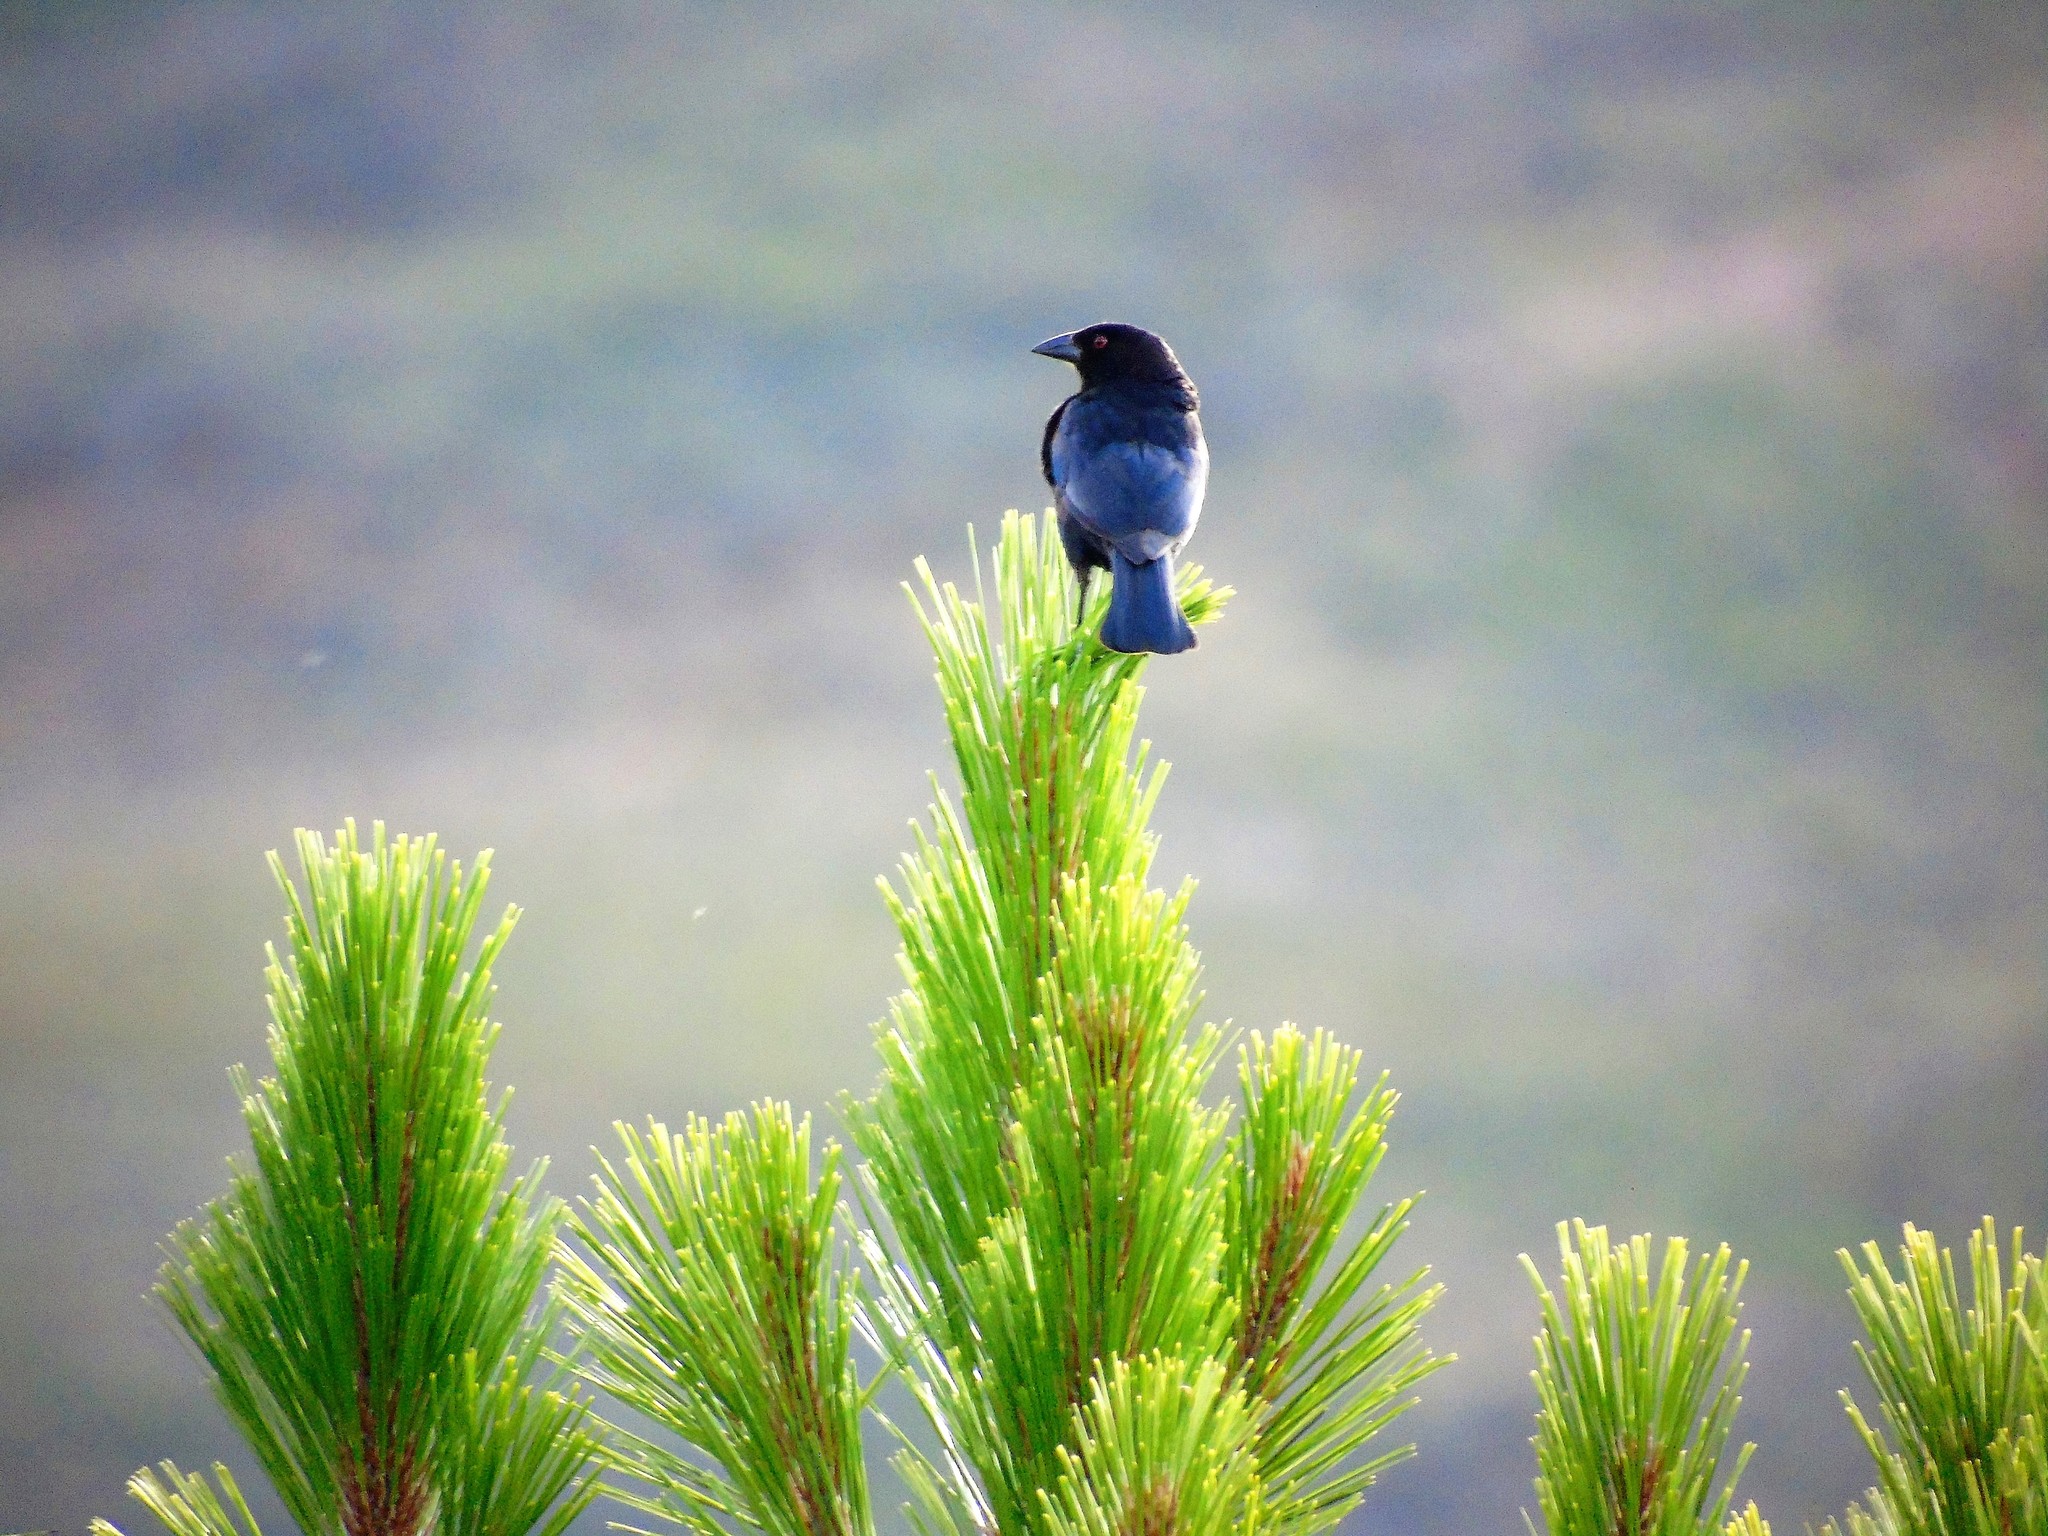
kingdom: Animalia
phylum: Chordata
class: Aves
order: Passeriformes
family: Icteridae
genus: Molothrus
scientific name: Molothrus aeneus
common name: Bronzed cowbird
